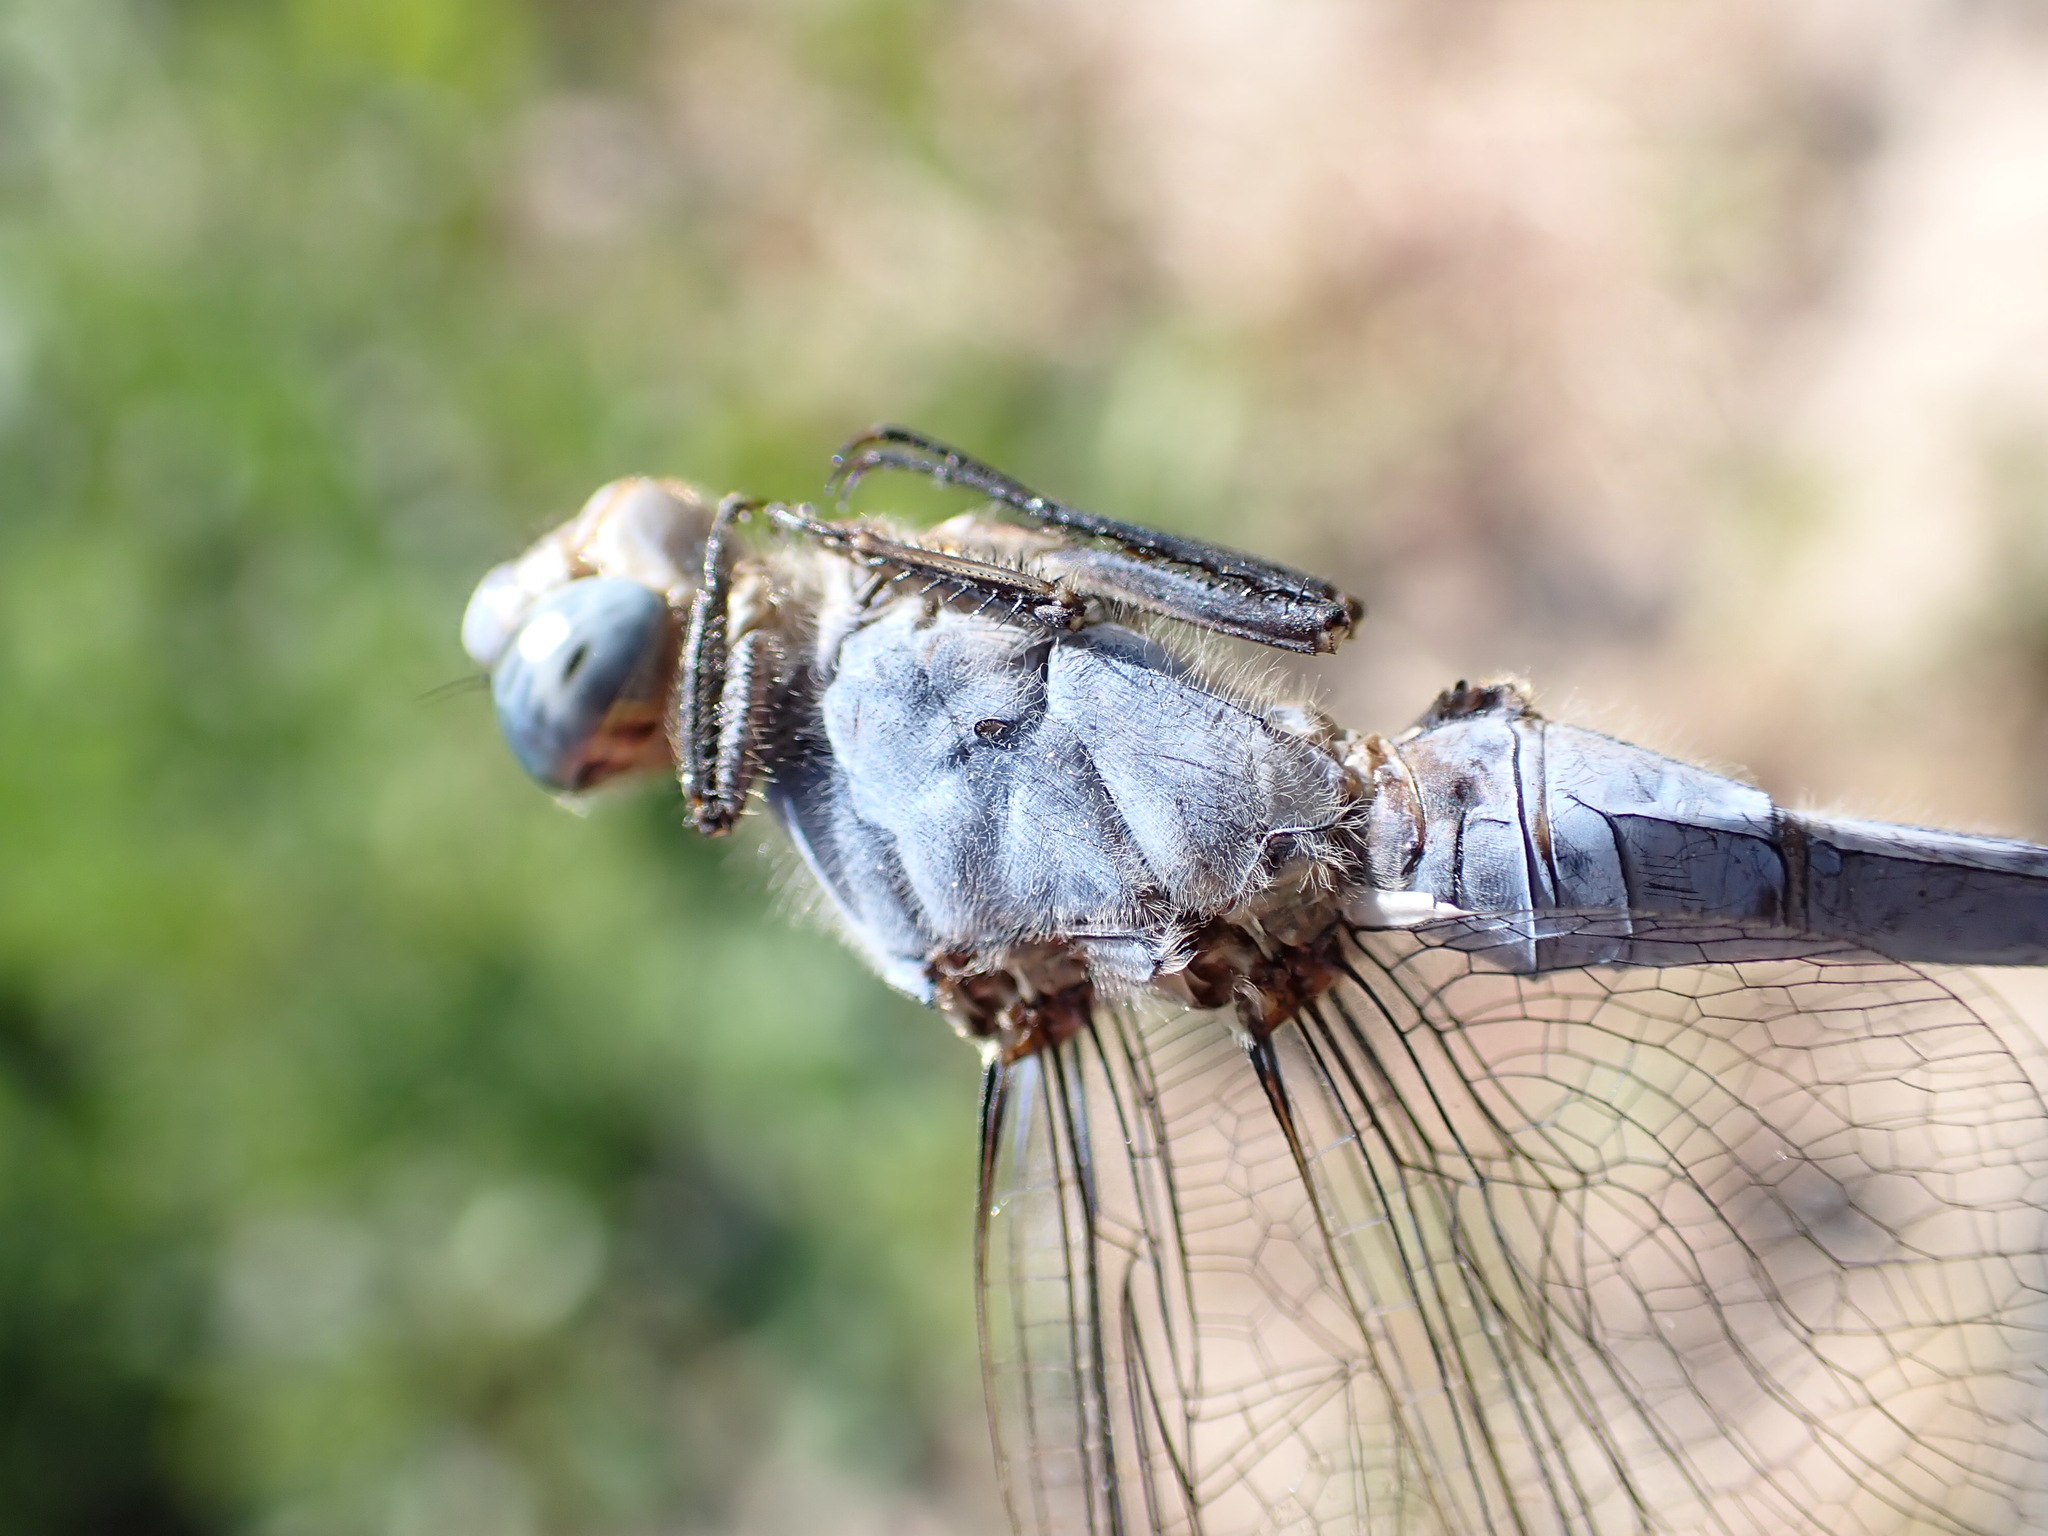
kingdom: Animalia
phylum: Arthropoda
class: Insecta
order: Odonata
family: Libellulidae
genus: Orthetrum
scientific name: Orthetrum brunneum
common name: Southern skimmer
